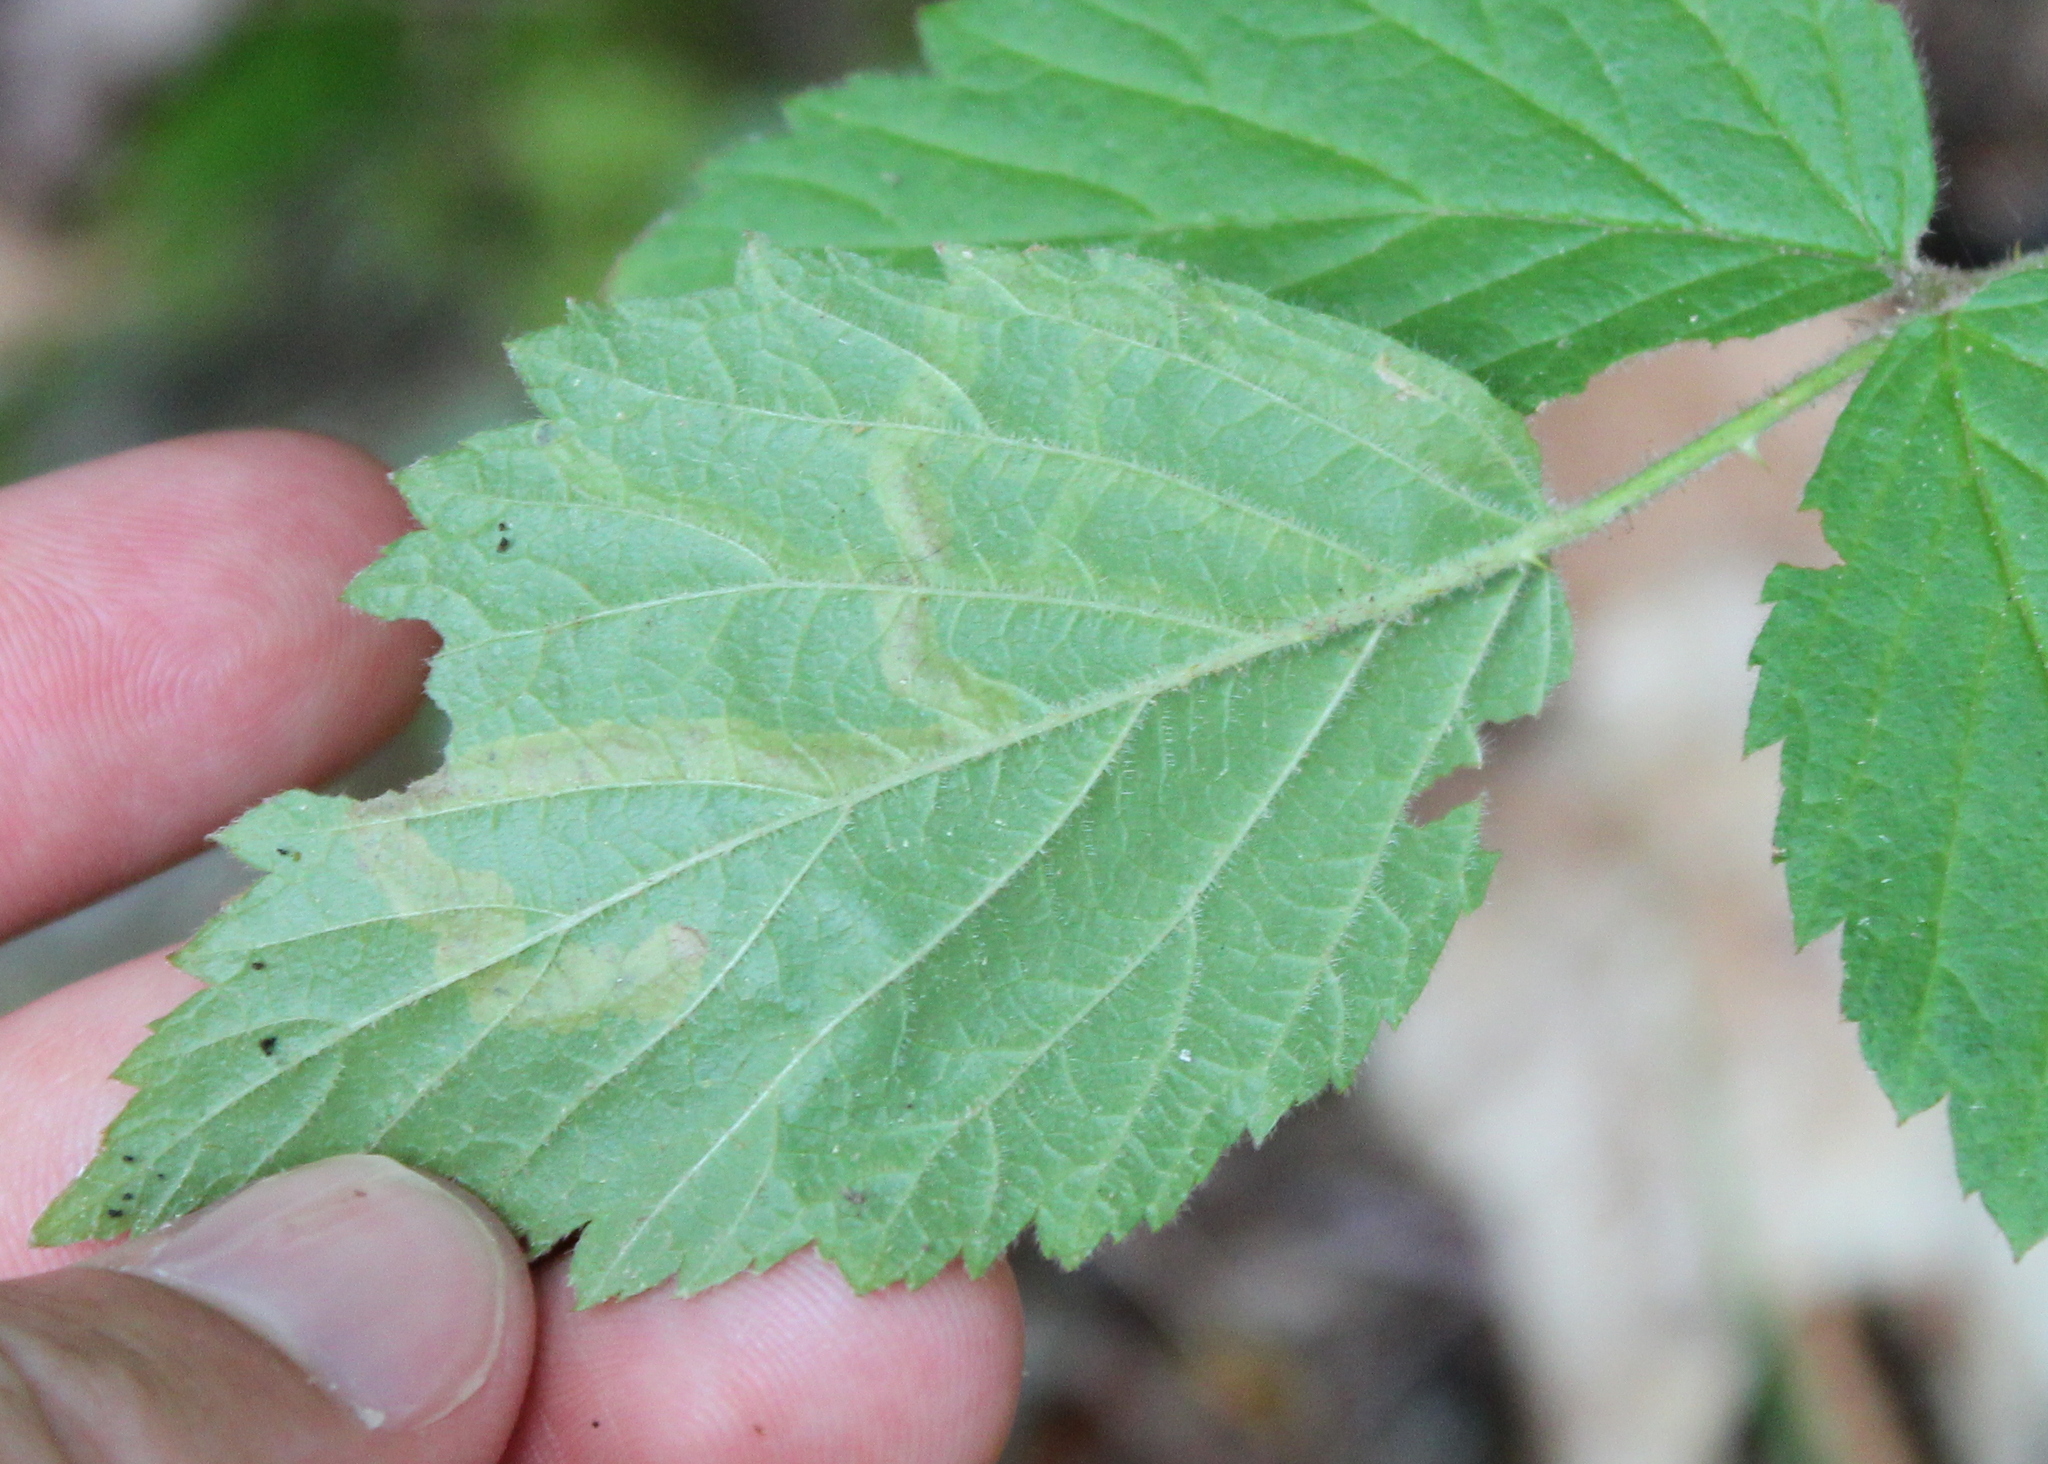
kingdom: Animalia
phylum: Arthropoda
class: Insecta
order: Diptera
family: Agromyzidae
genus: Agromyza
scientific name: Agromyza vockerothi
